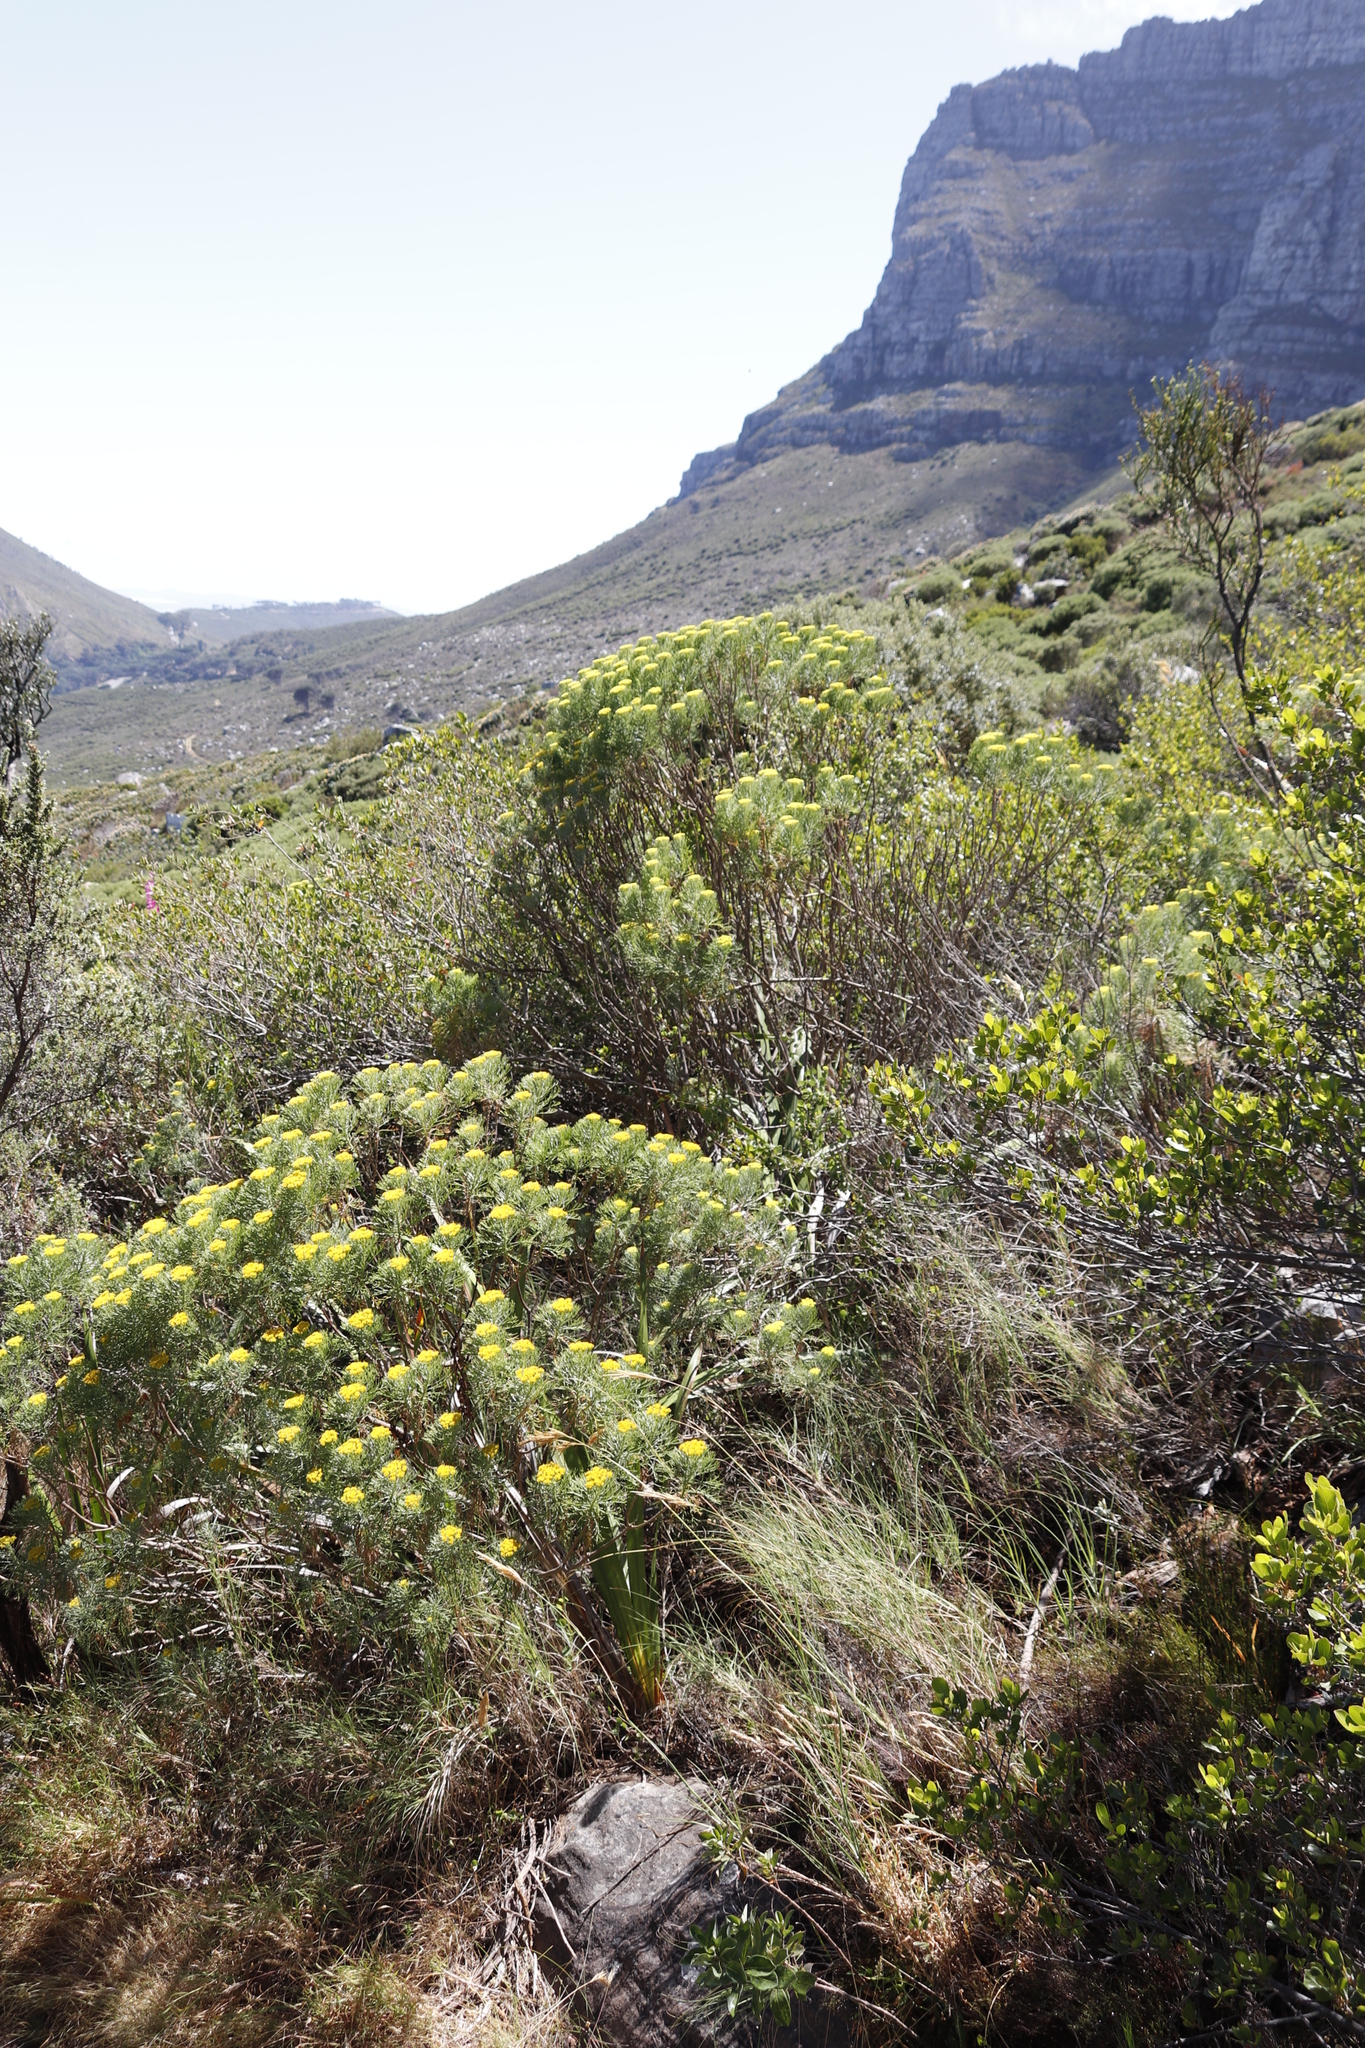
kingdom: Plantae
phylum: Tracheophyta
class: Magnoliopsida
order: Asterales
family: Asteraceae
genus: Hymenolepis
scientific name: Hymenolepis crithmifolia
